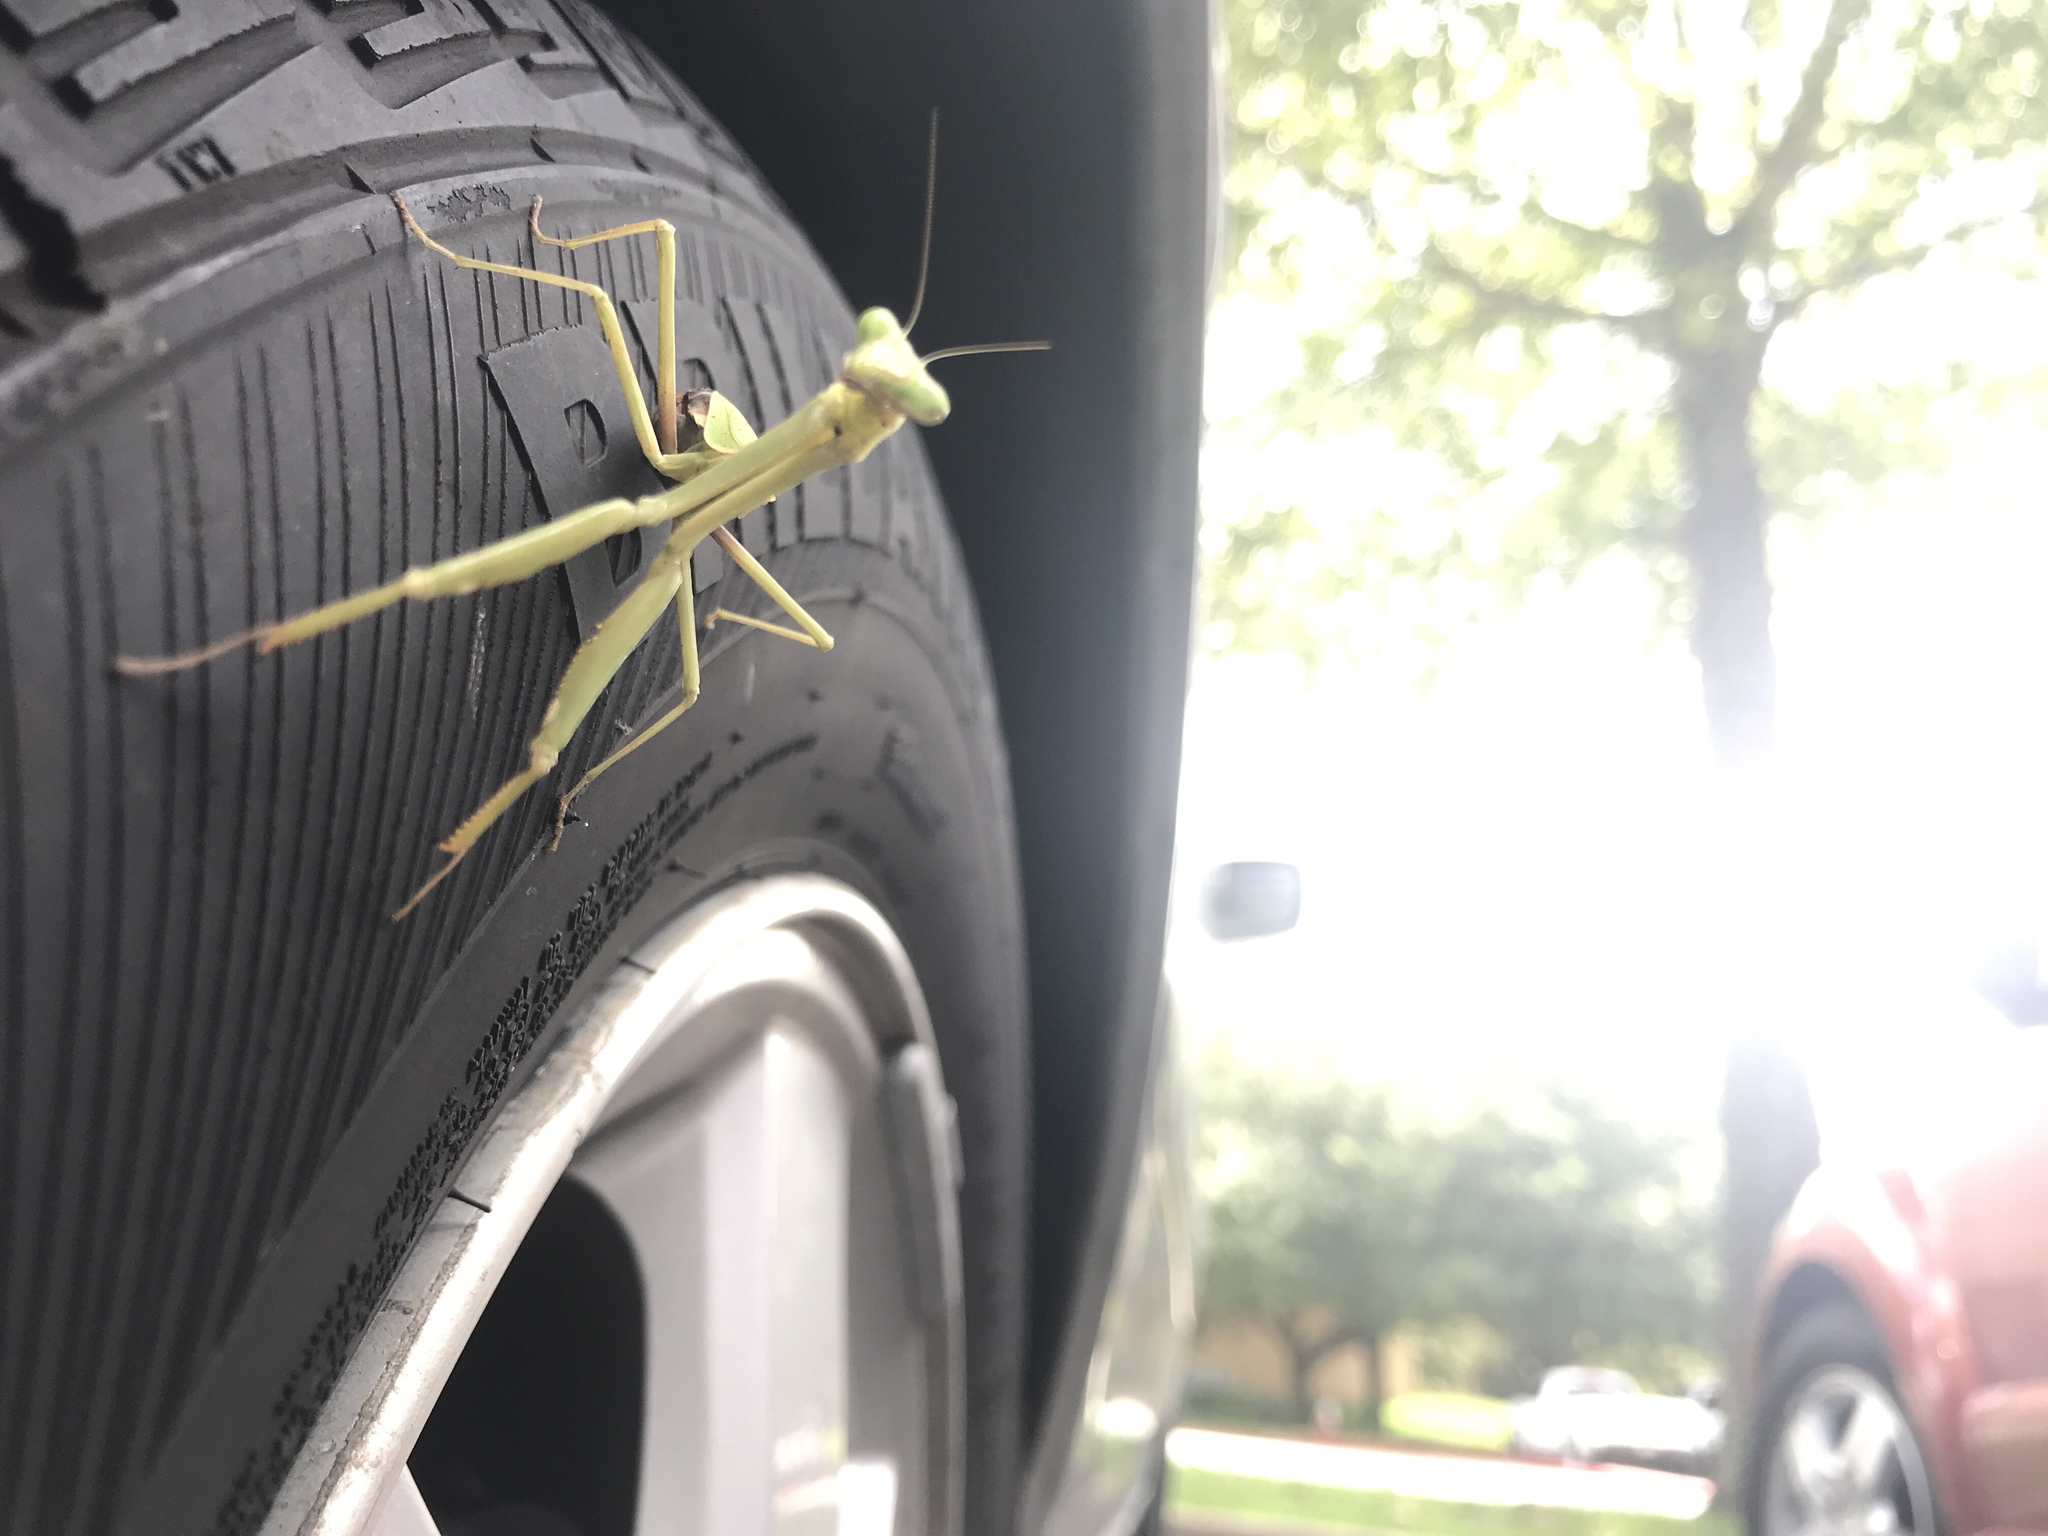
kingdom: Animalia
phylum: Arthropoda
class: Insecta
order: Mantodea
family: Mantidae
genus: Stagmomantis
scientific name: Stagmomantis carolina
